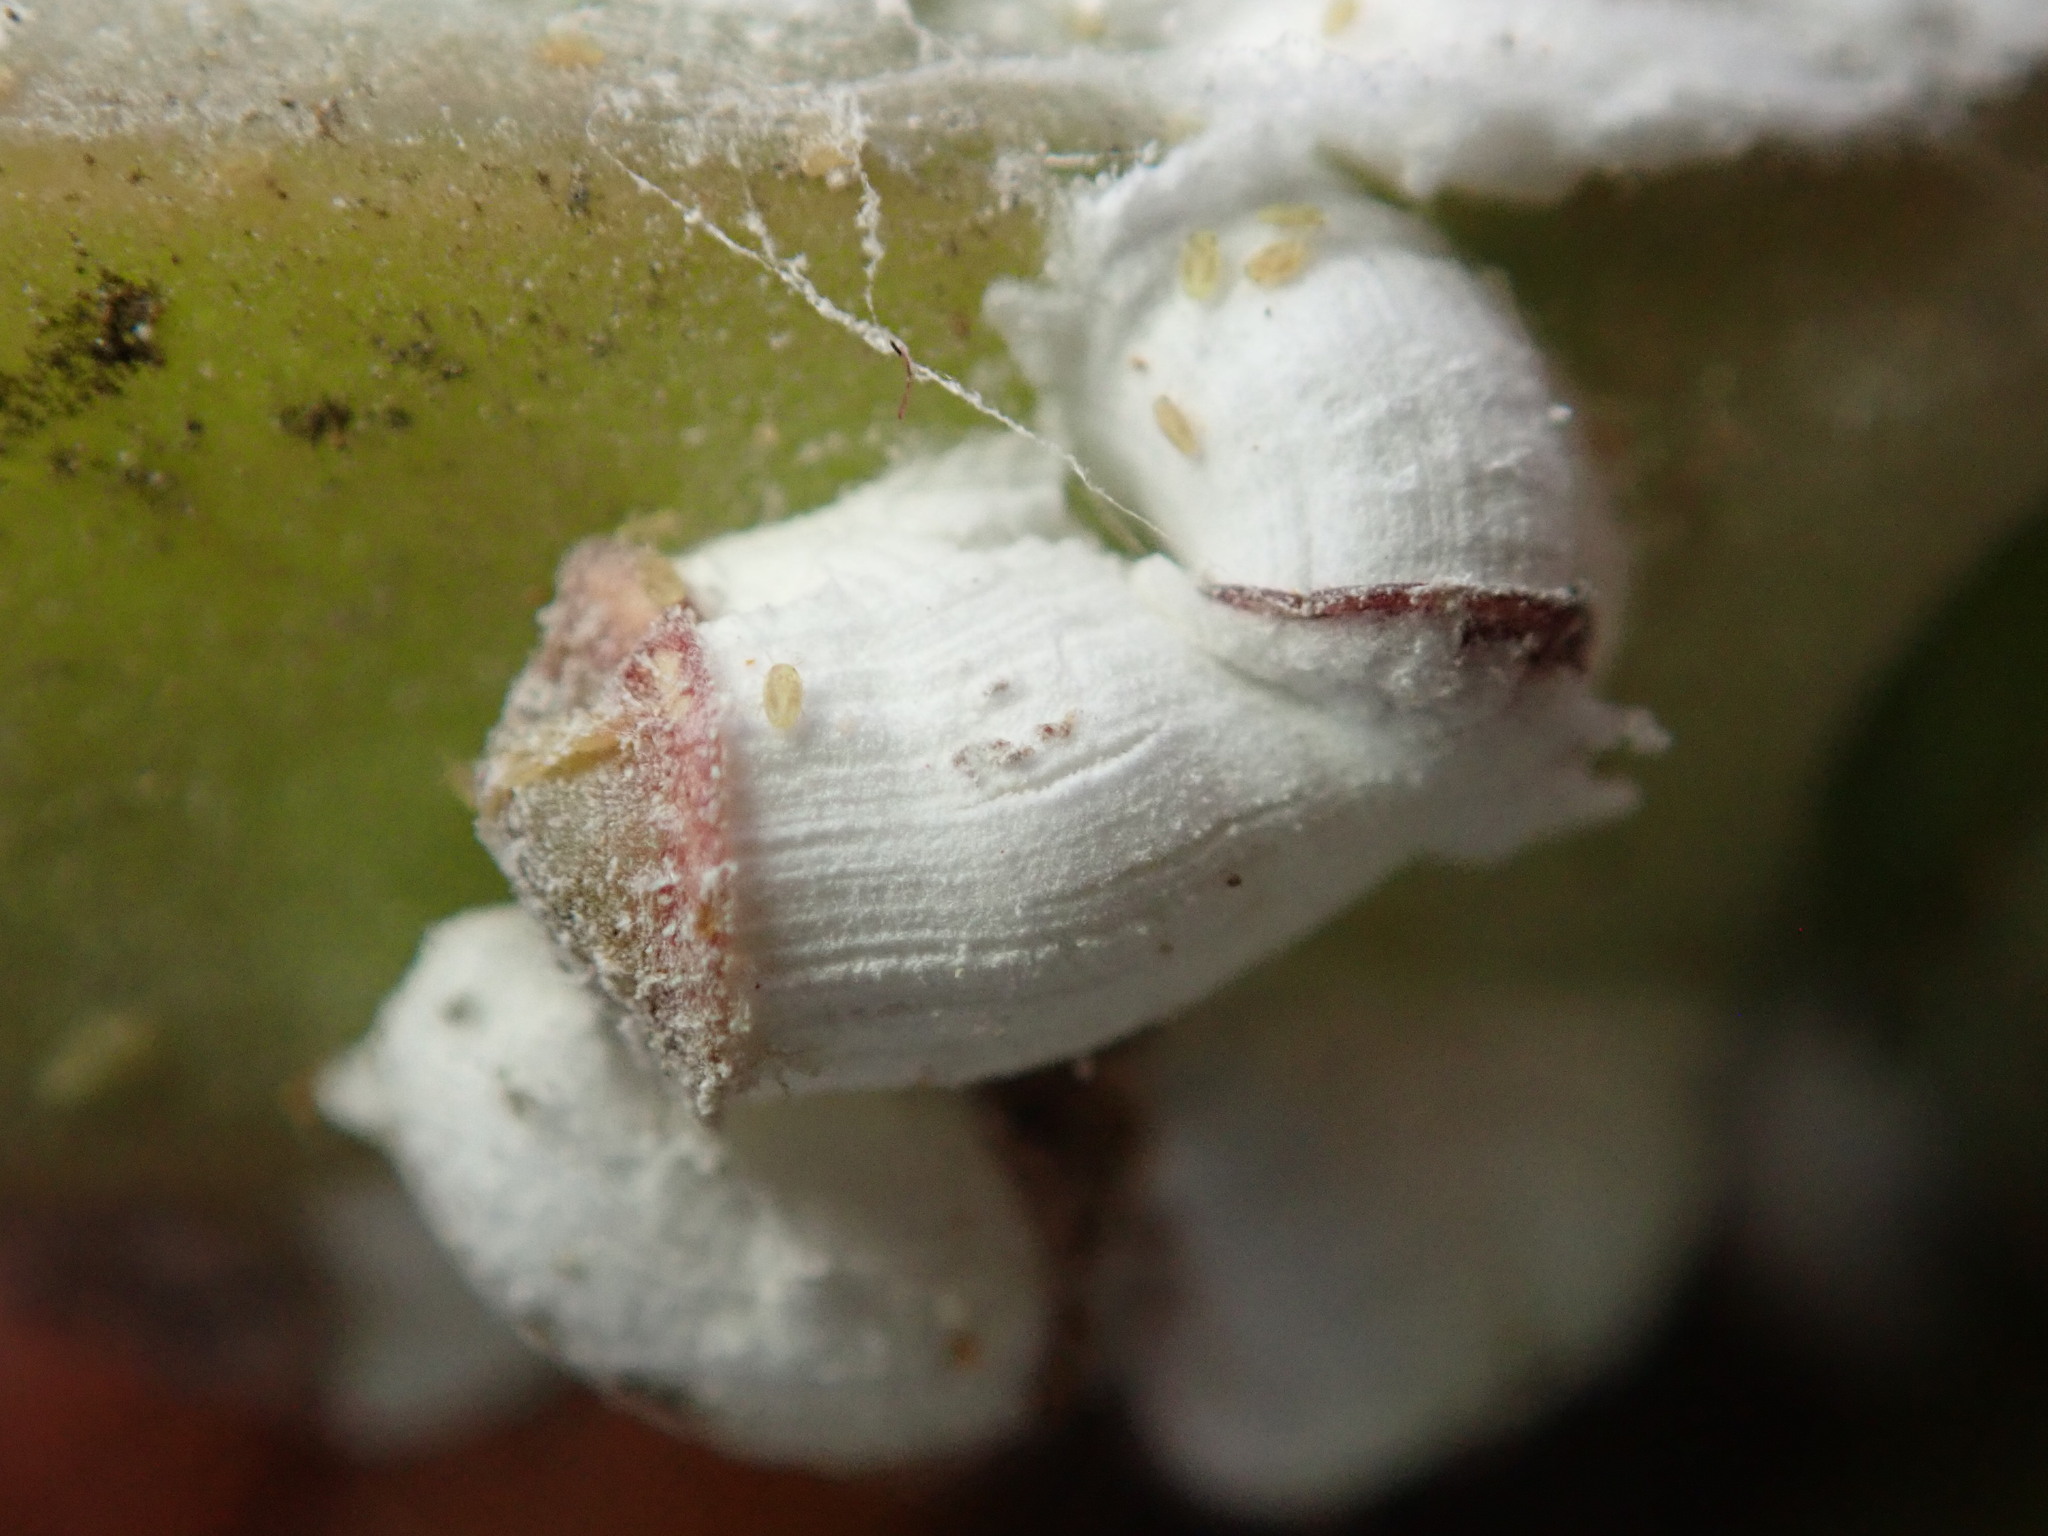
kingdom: Animalia
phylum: Arthropoda
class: Insecta
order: Hemiptera
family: Coccidae
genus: Pulvinariella
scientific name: Pulvinariella mesembryanthemi
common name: Cottony pigface scale
